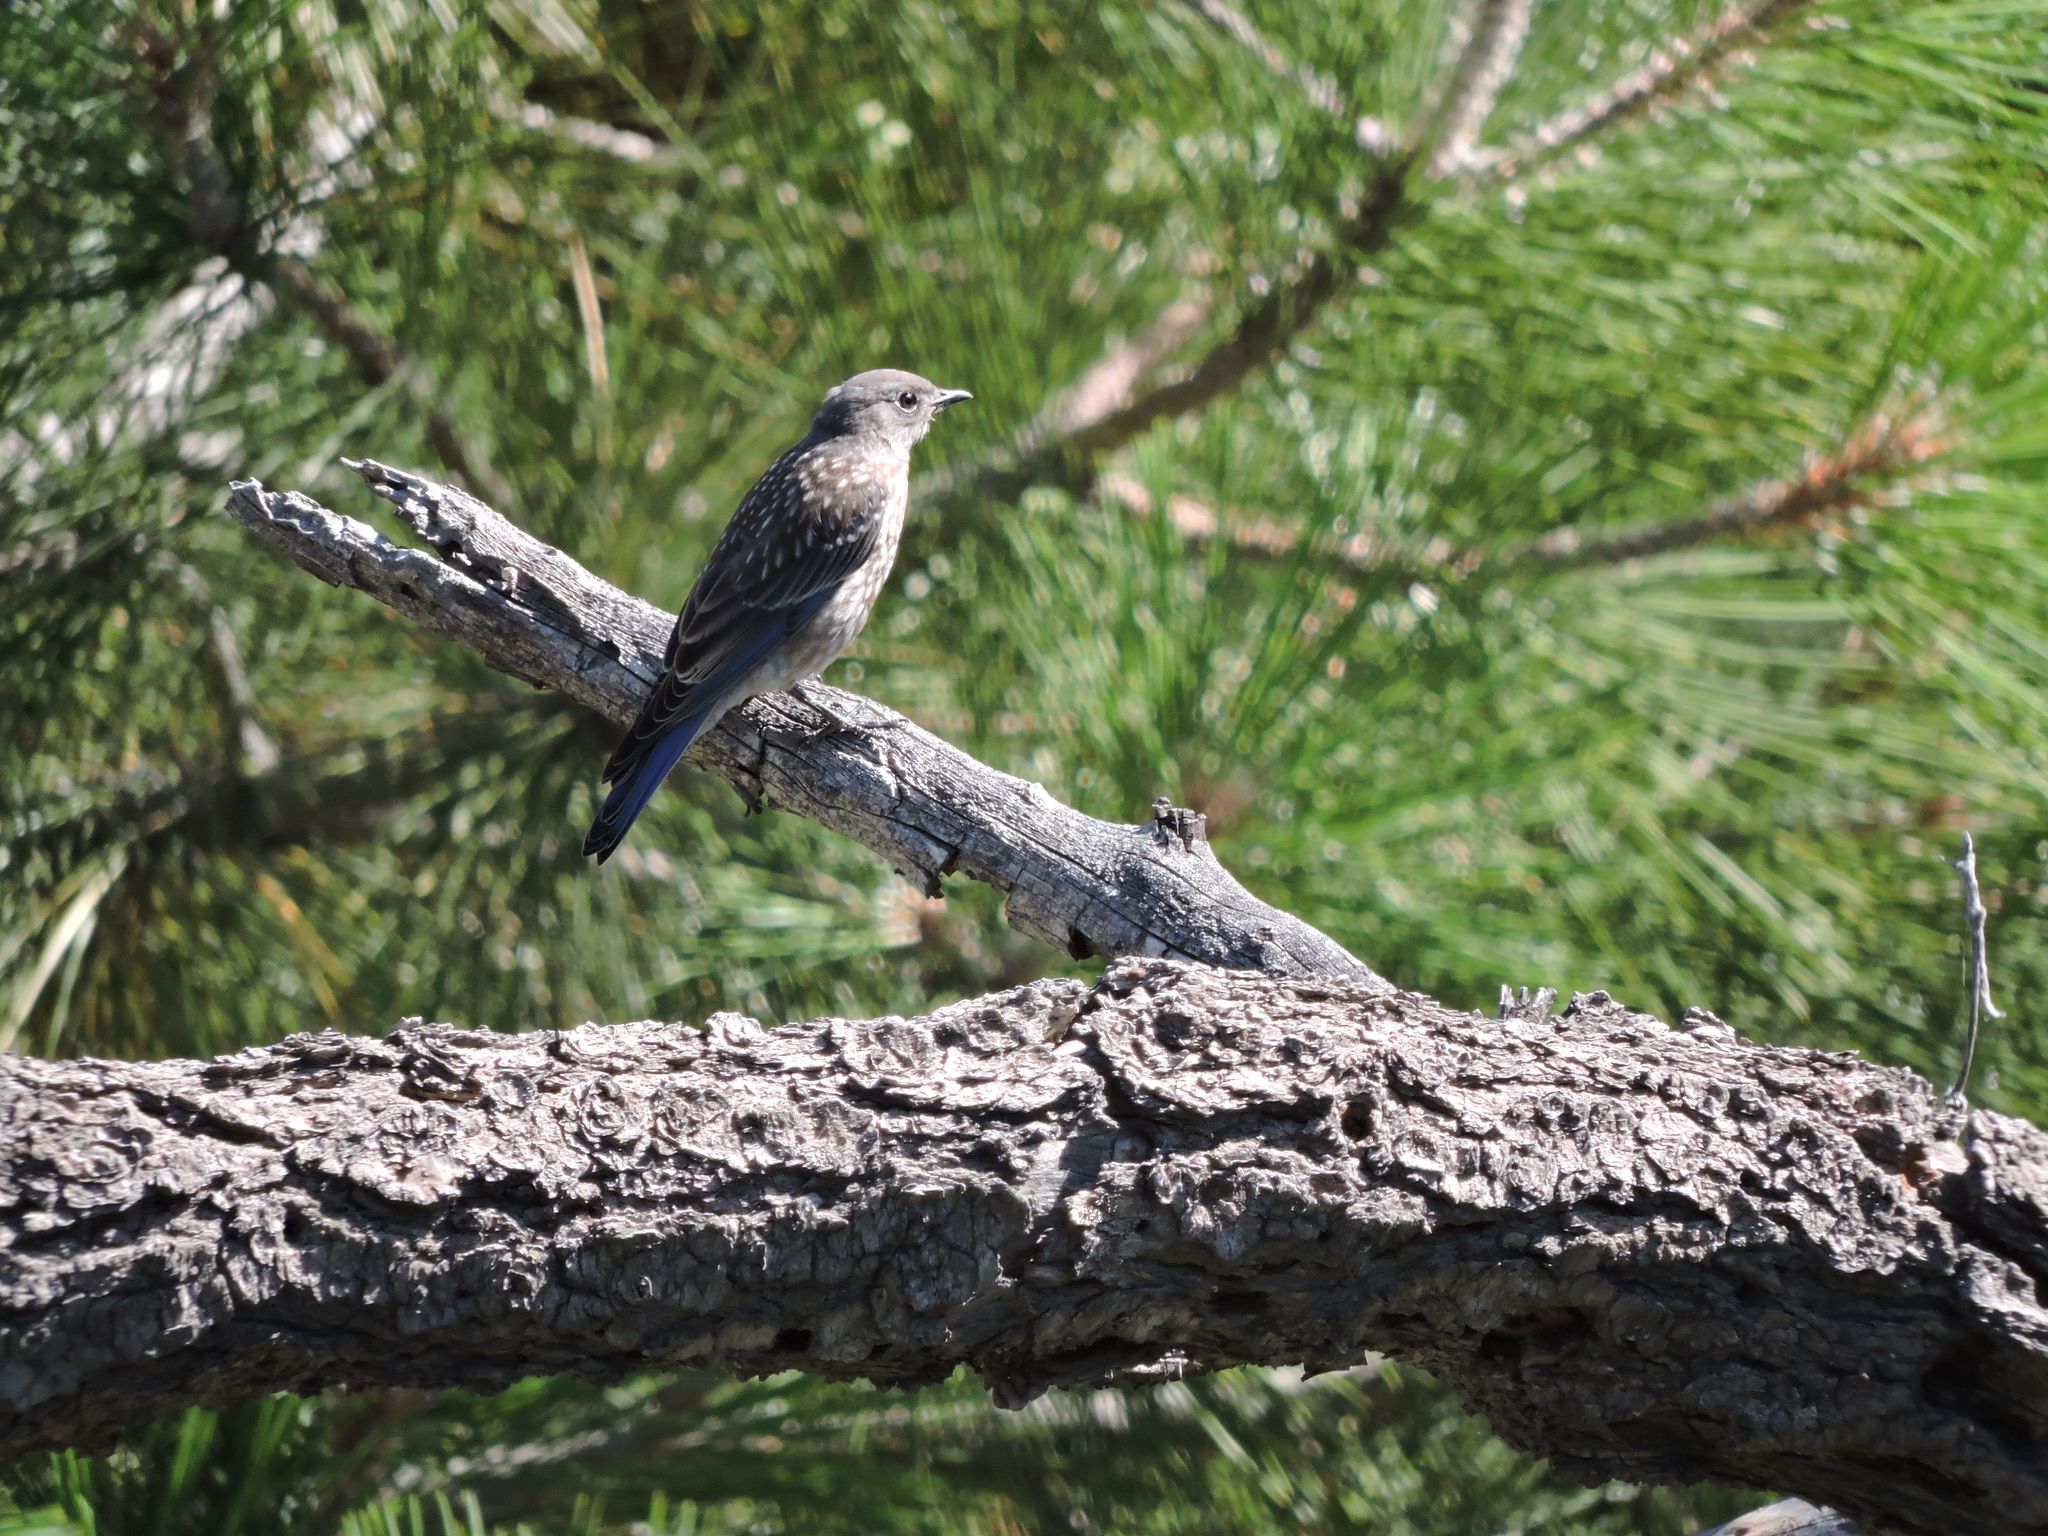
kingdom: Animalia
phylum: Chordata
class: Aves
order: Passeriformes
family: Turdidae
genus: Sialia
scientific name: Sialia mexicana
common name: Western bluebird
